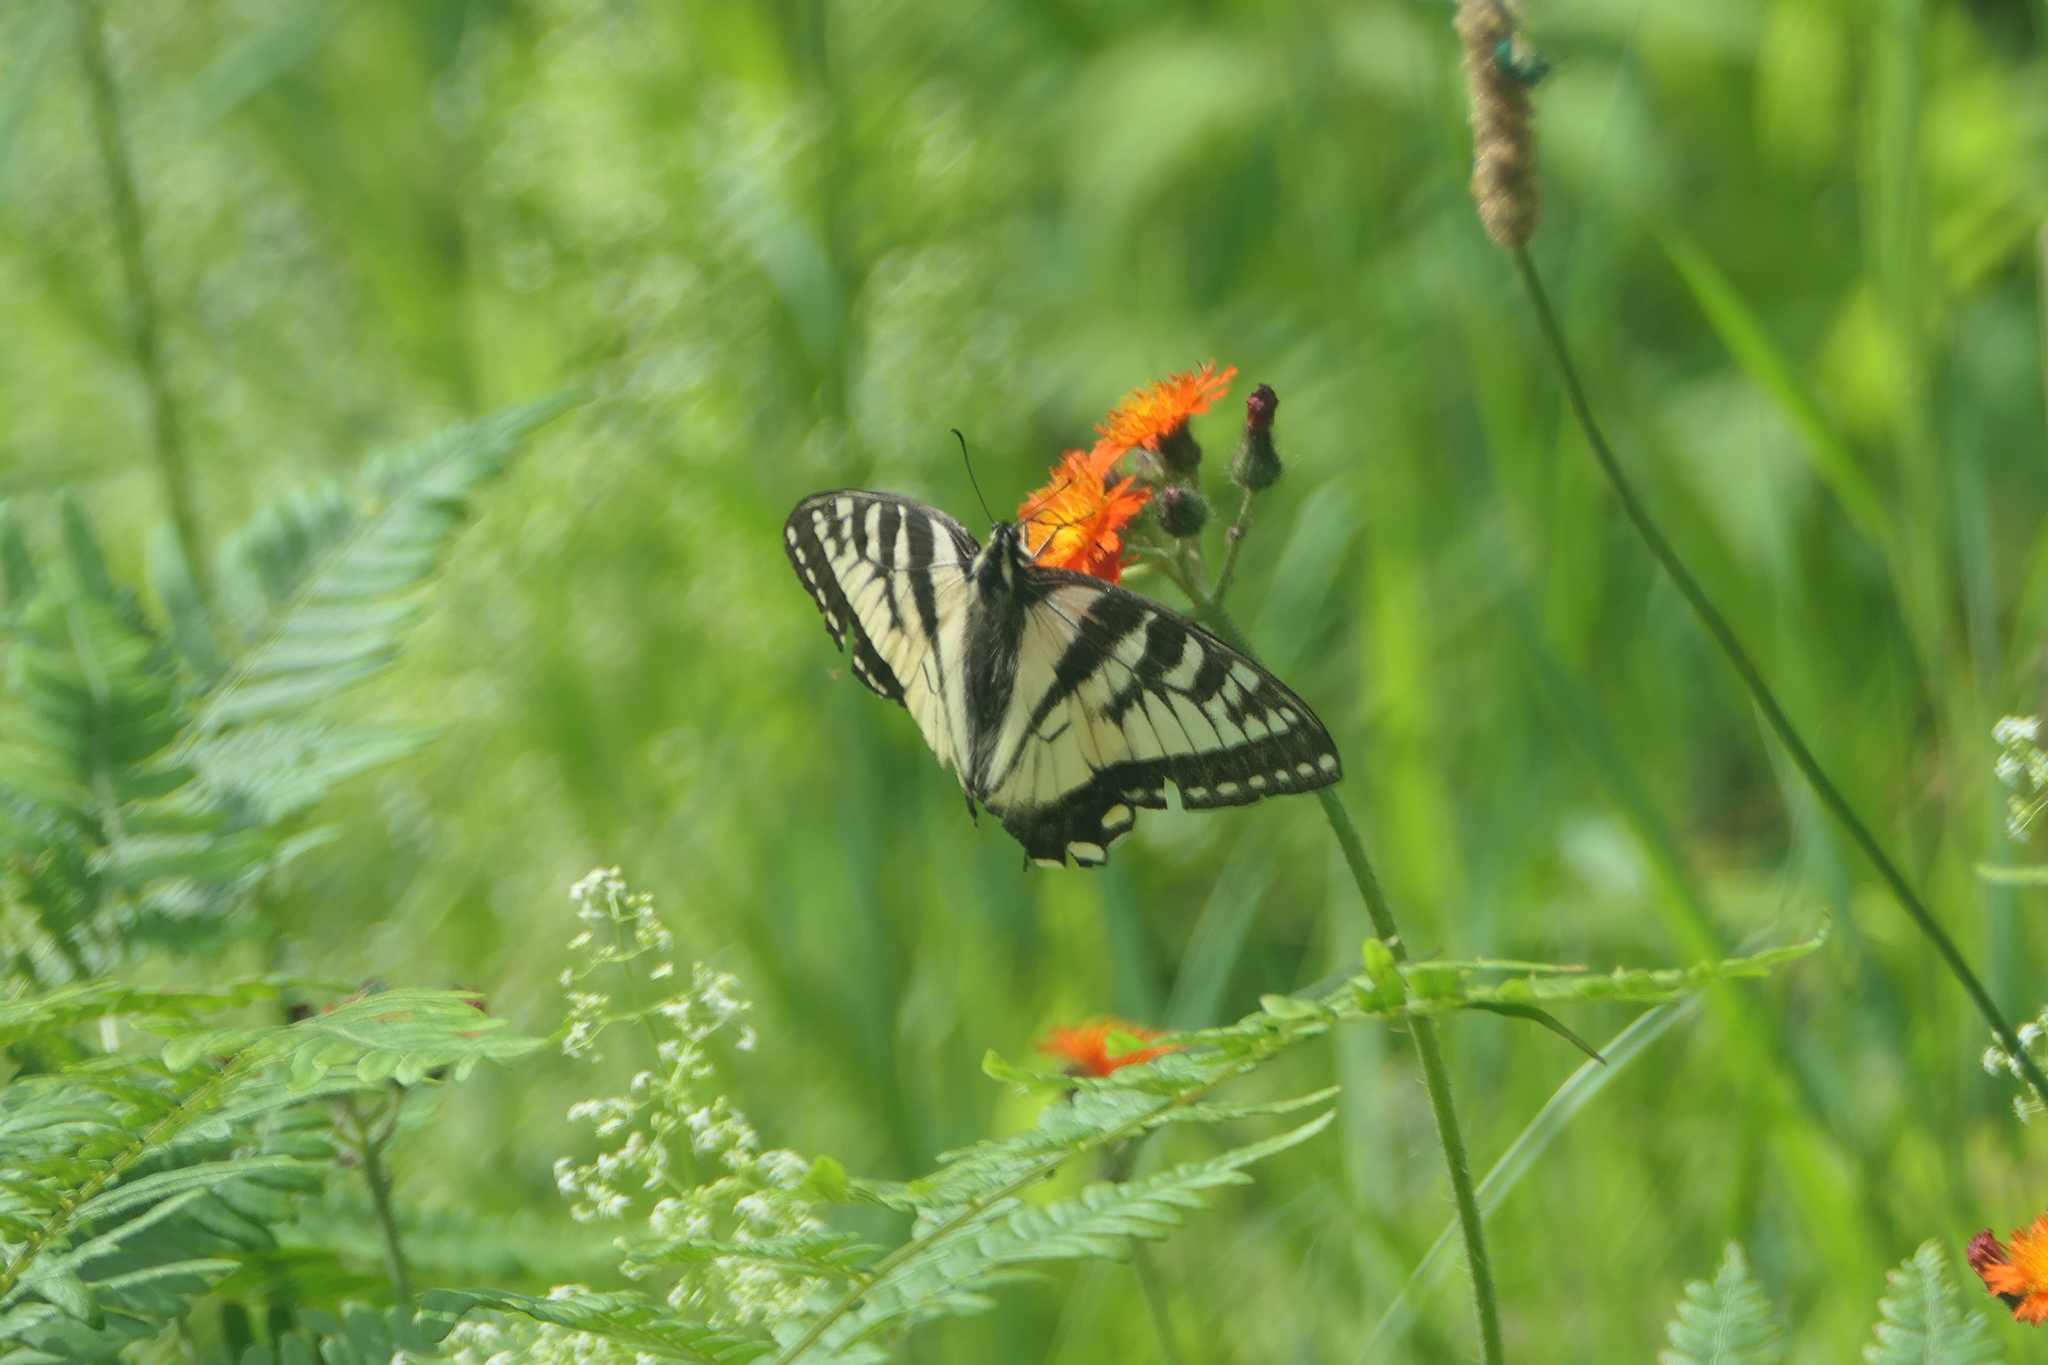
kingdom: Animalia
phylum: Arthropoda
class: Insecta
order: Lepidoptera
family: Papilionidae
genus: Papilio
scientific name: Papilio canadensis
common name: Canadian tiger swallowtail
